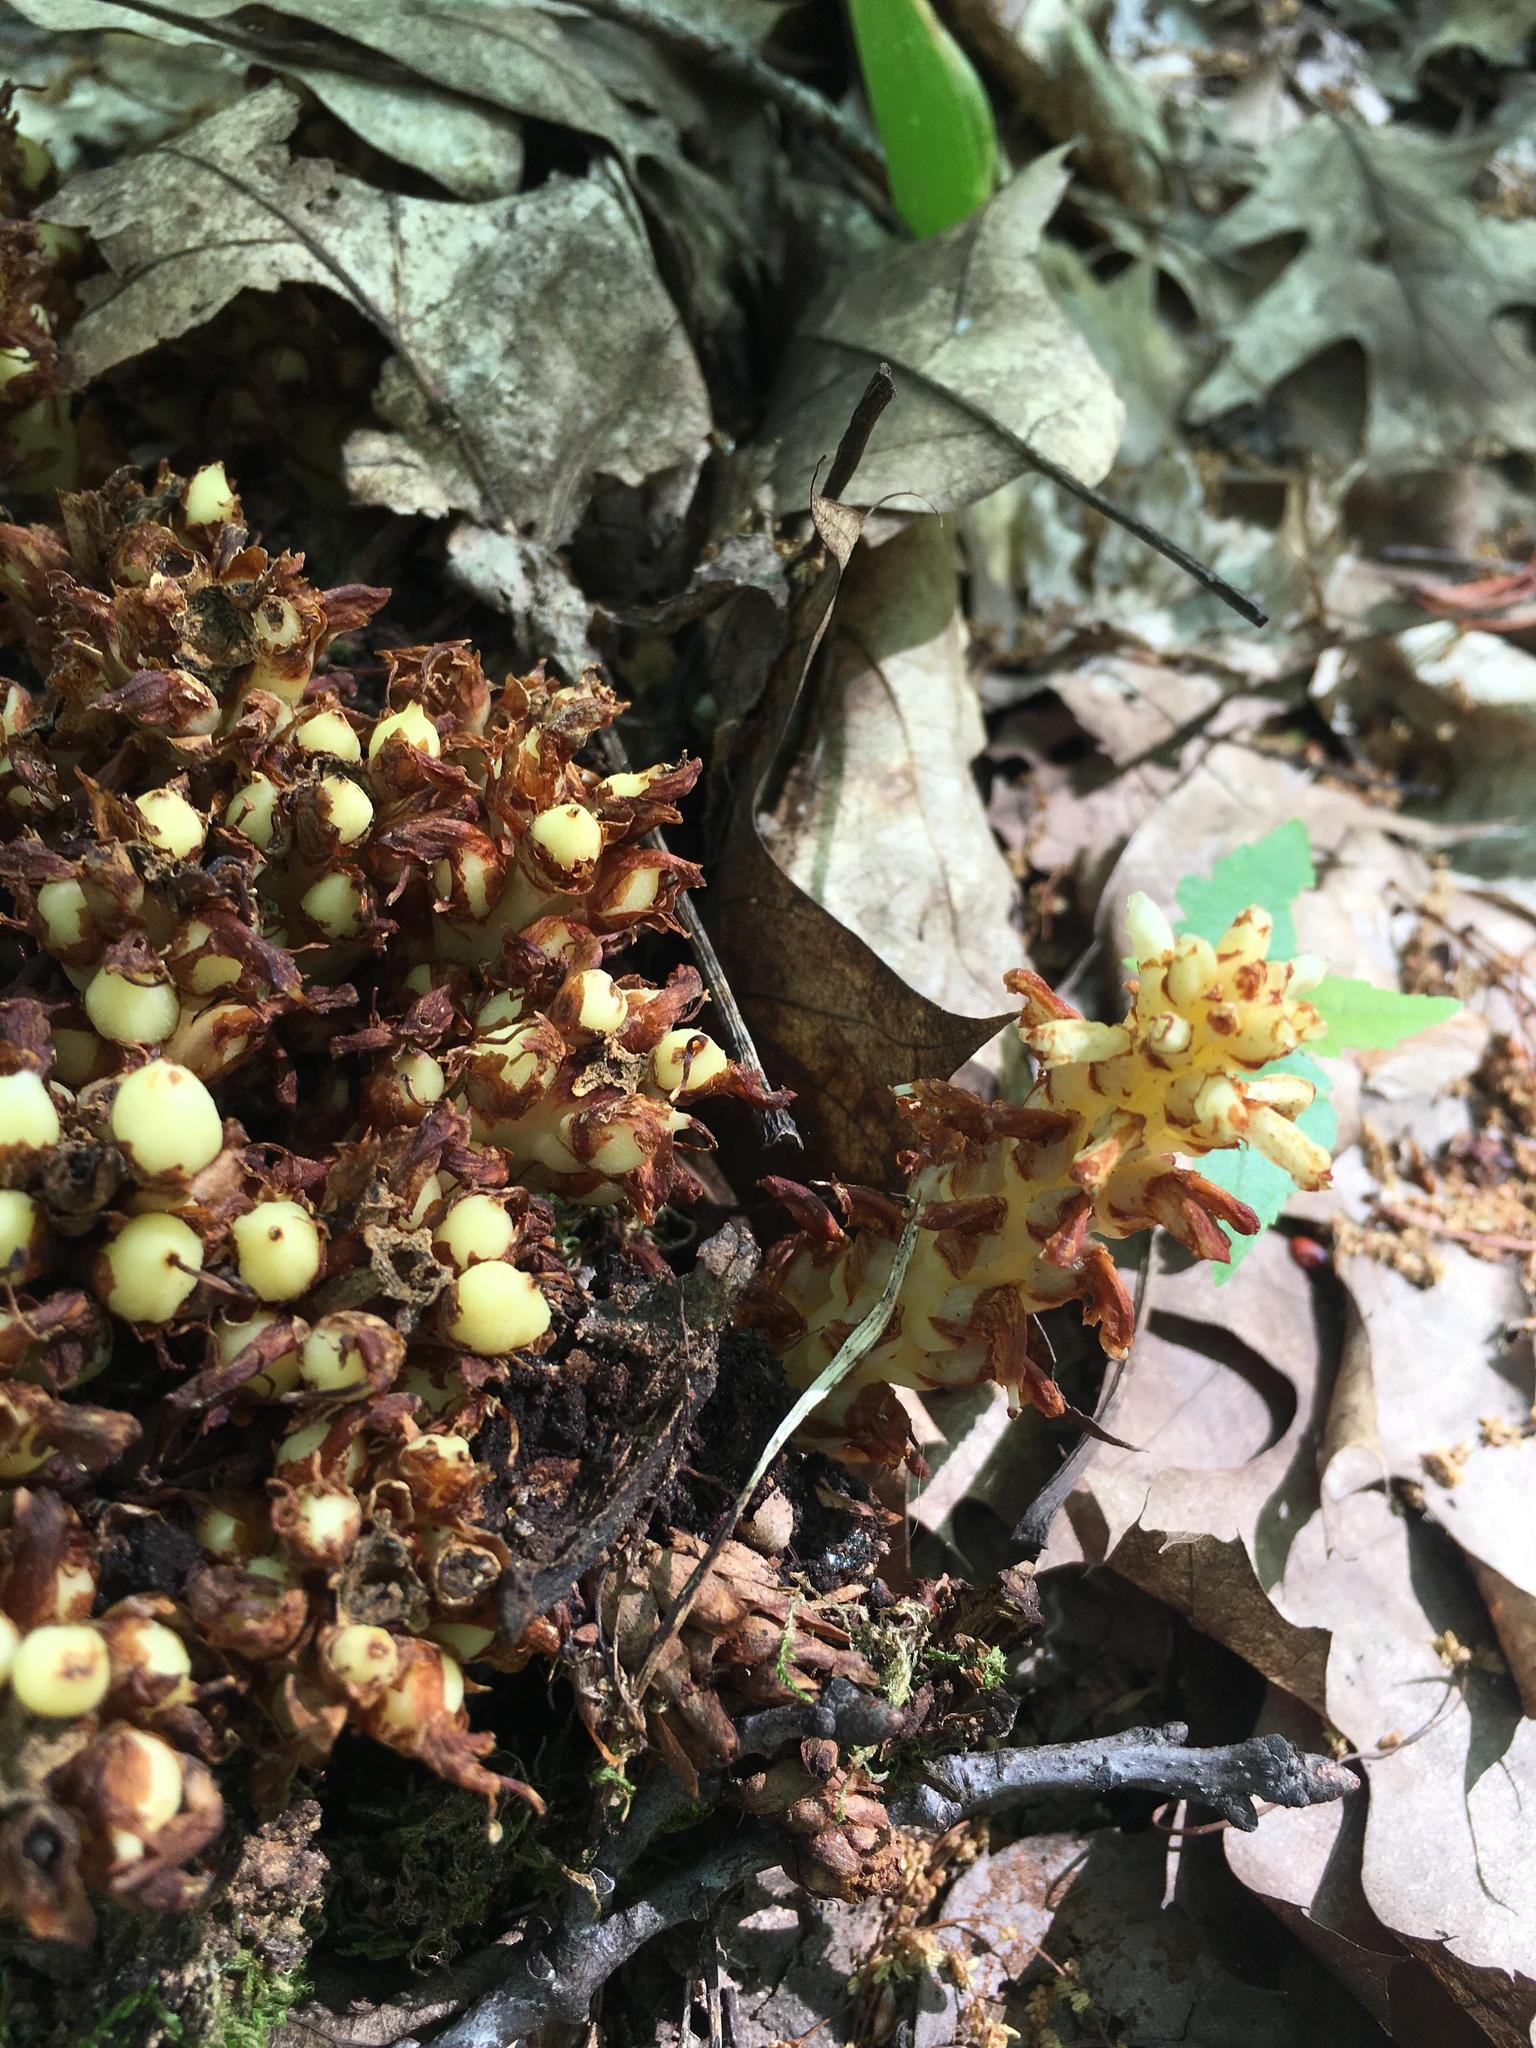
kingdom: Plantae
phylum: Tracheophyta
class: Magnoliopsida
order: Lamiales
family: Orobanchaceae
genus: Conopholis
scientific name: Conopholis americana
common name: American cancer-root
